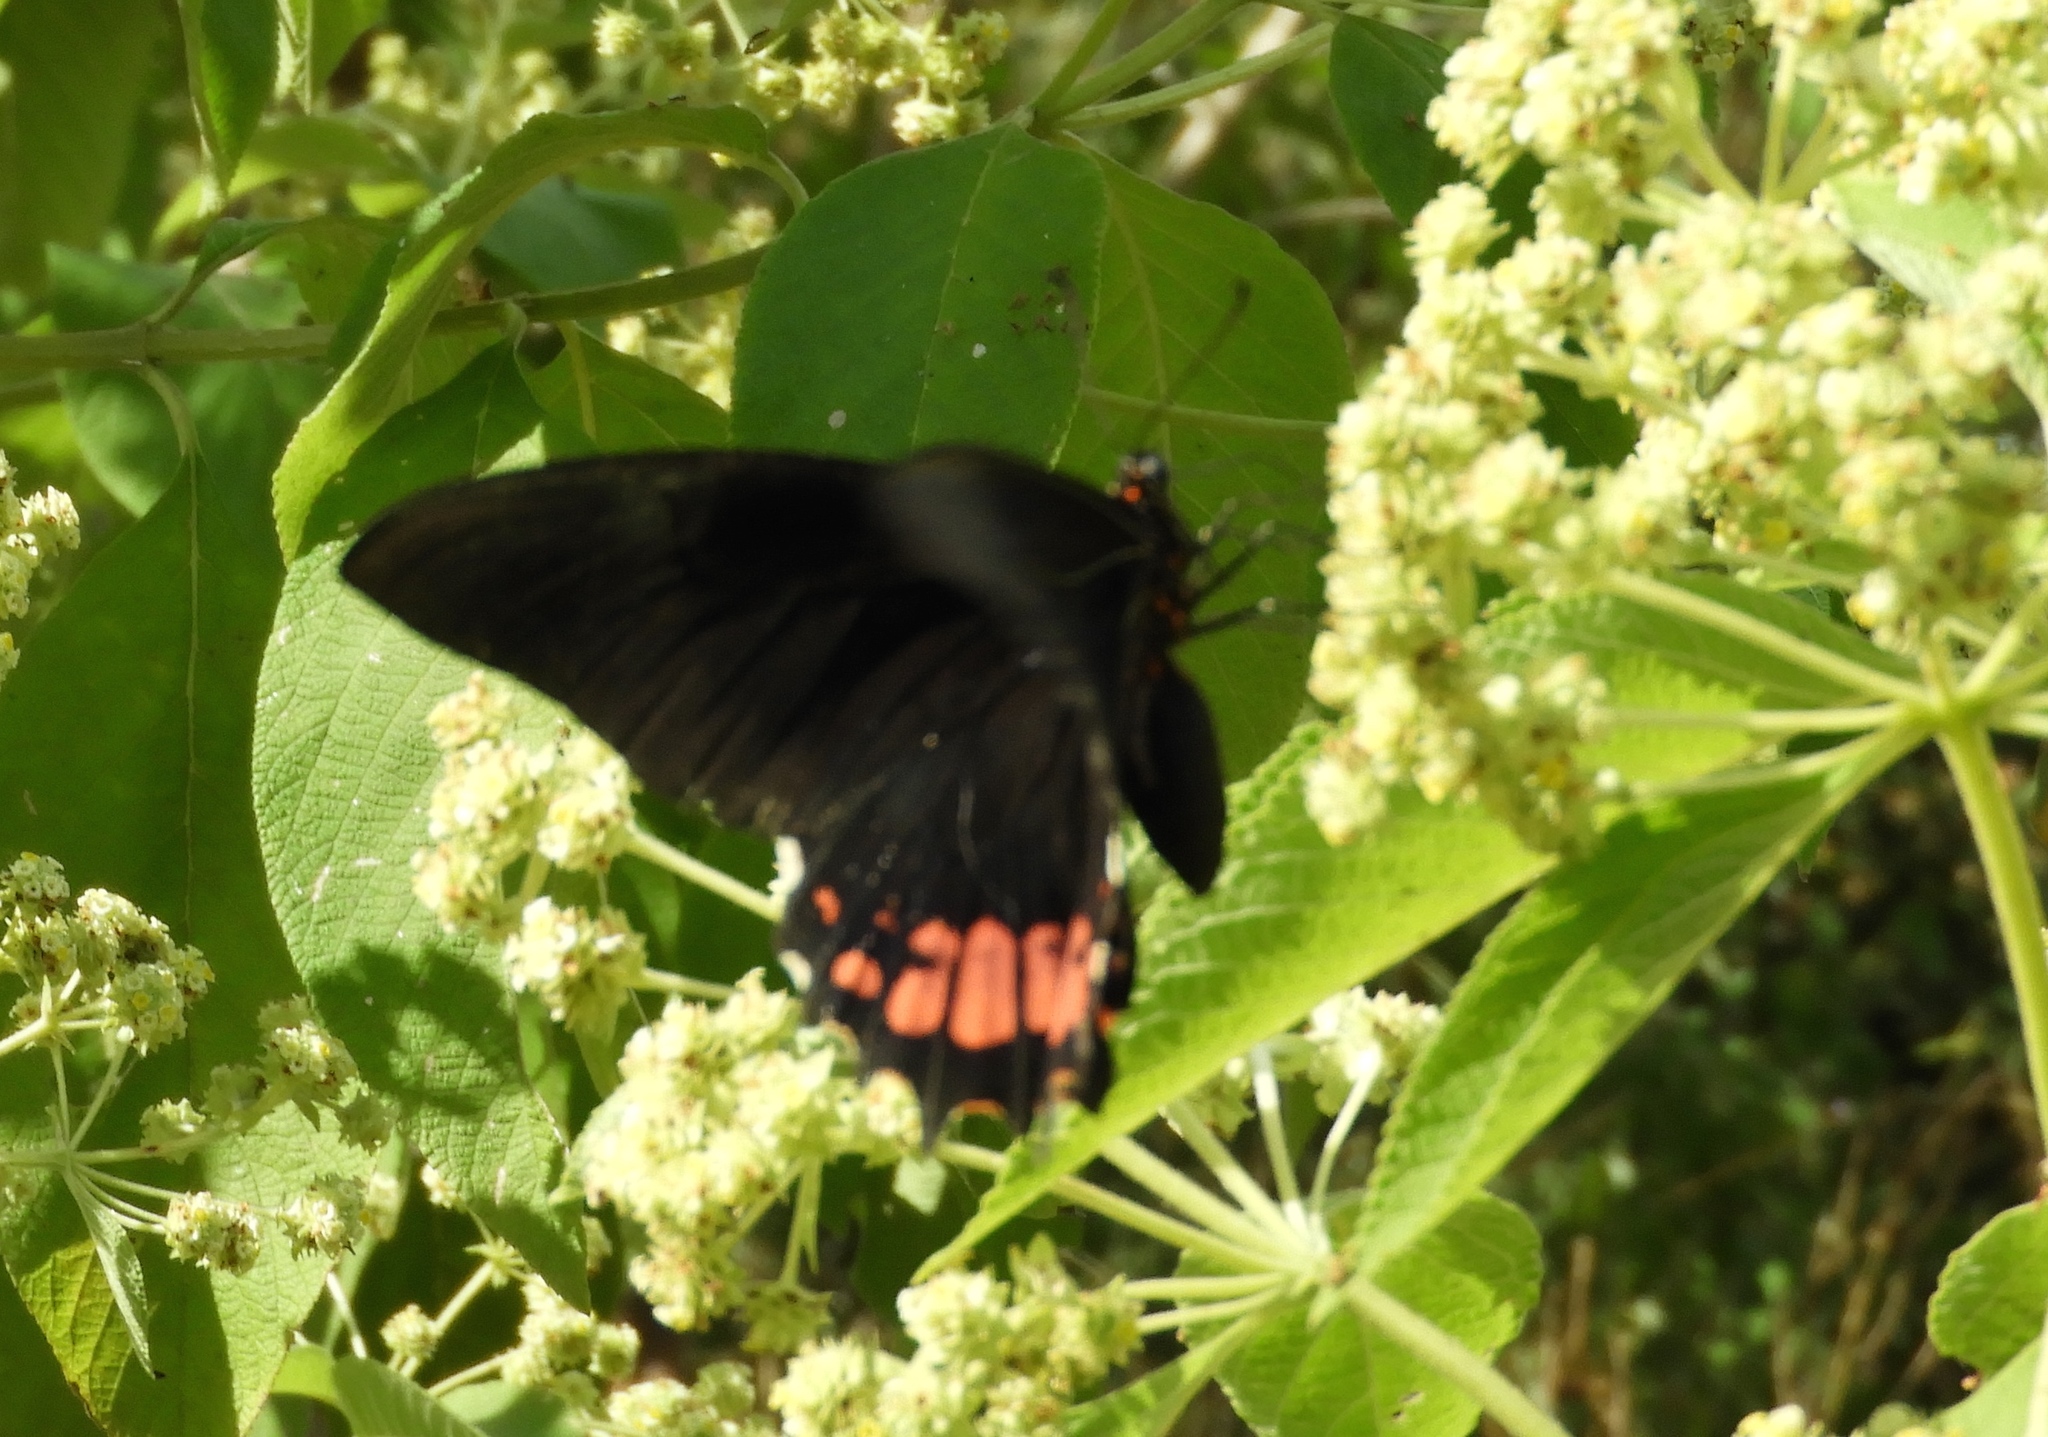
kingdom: Animalia
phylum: Arthropoda
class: Insecta
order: Lepidoptera
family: Papilionidae
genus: Papilio
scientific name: Papilio anchisiades
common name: Idaes swallowtail
